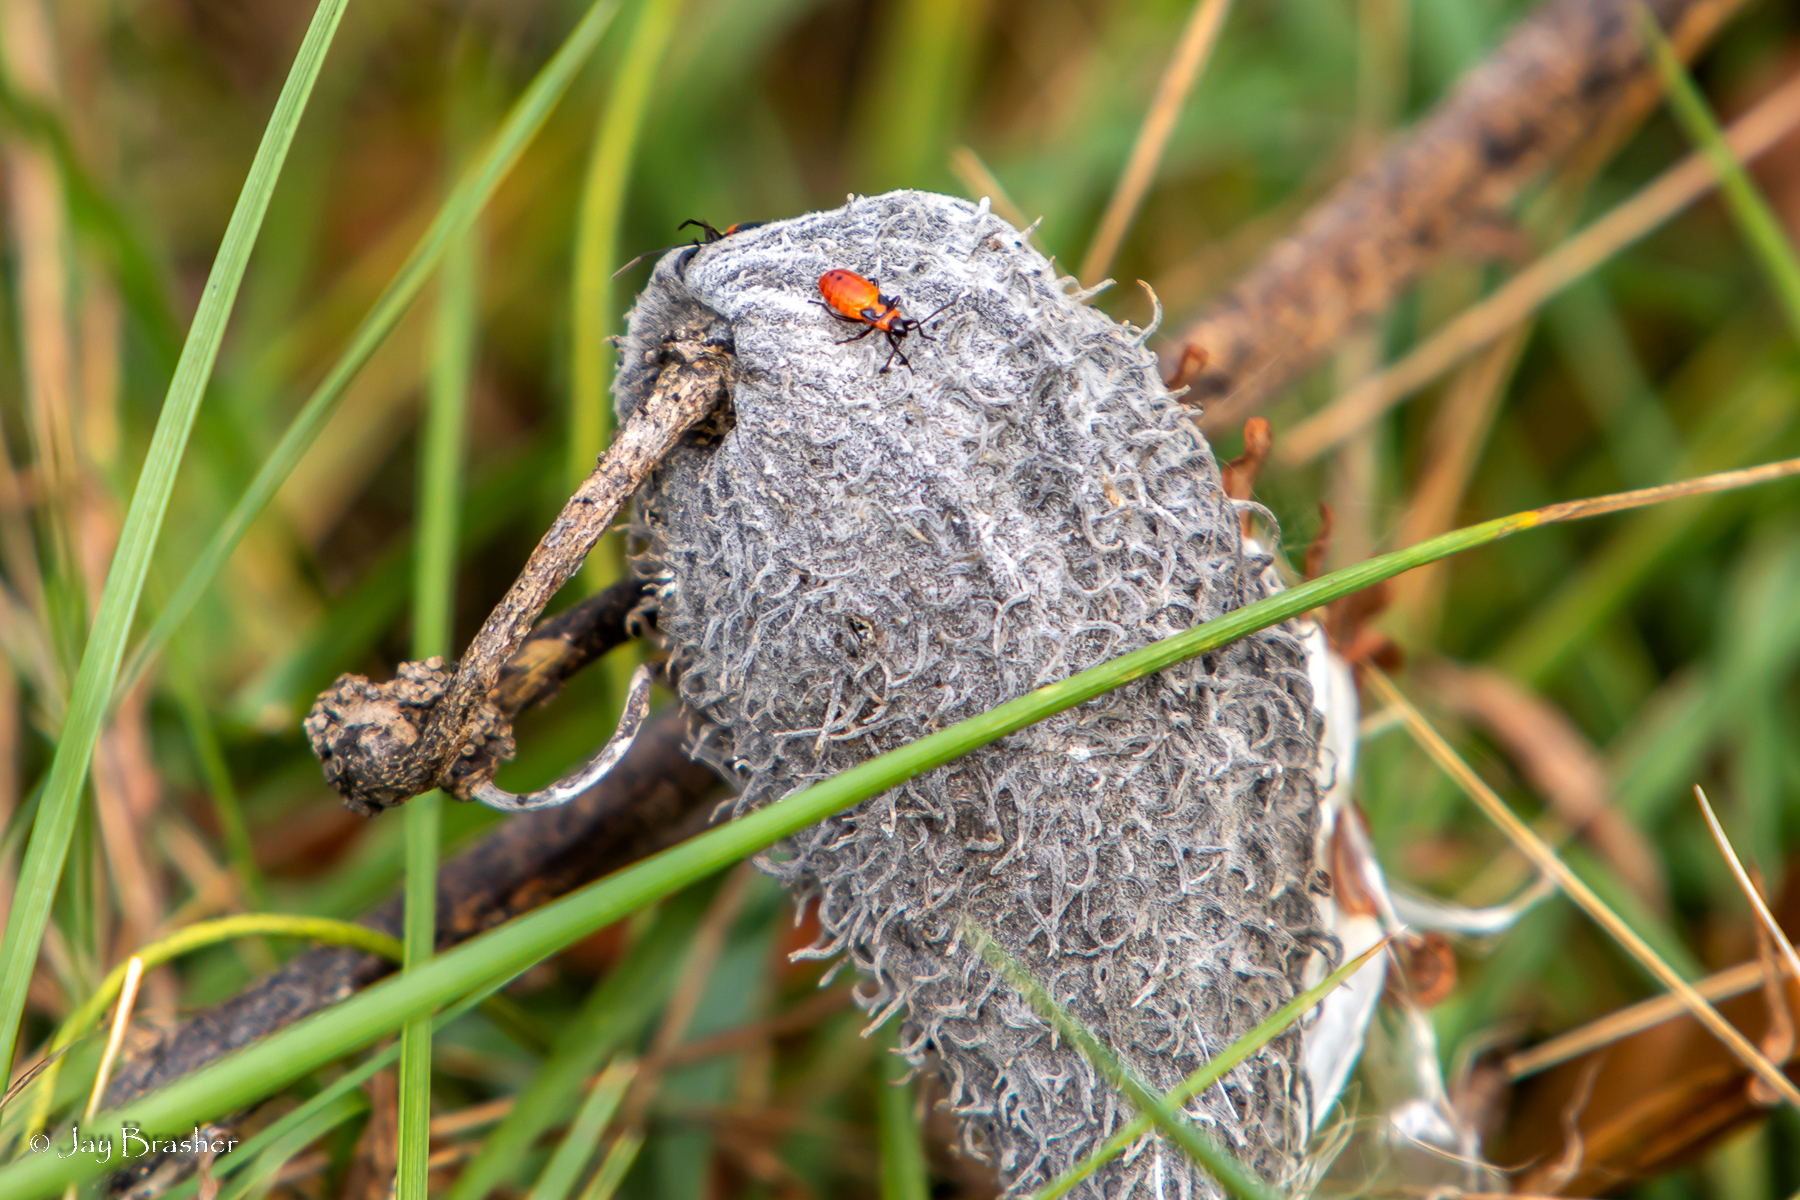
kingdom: Plantae
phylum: Tracheophyta
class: Magnoliopsida
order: Gentianales
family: Apocynaceae
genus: Asclepias
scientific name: Asclepias syriaca
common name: Common milkweed
